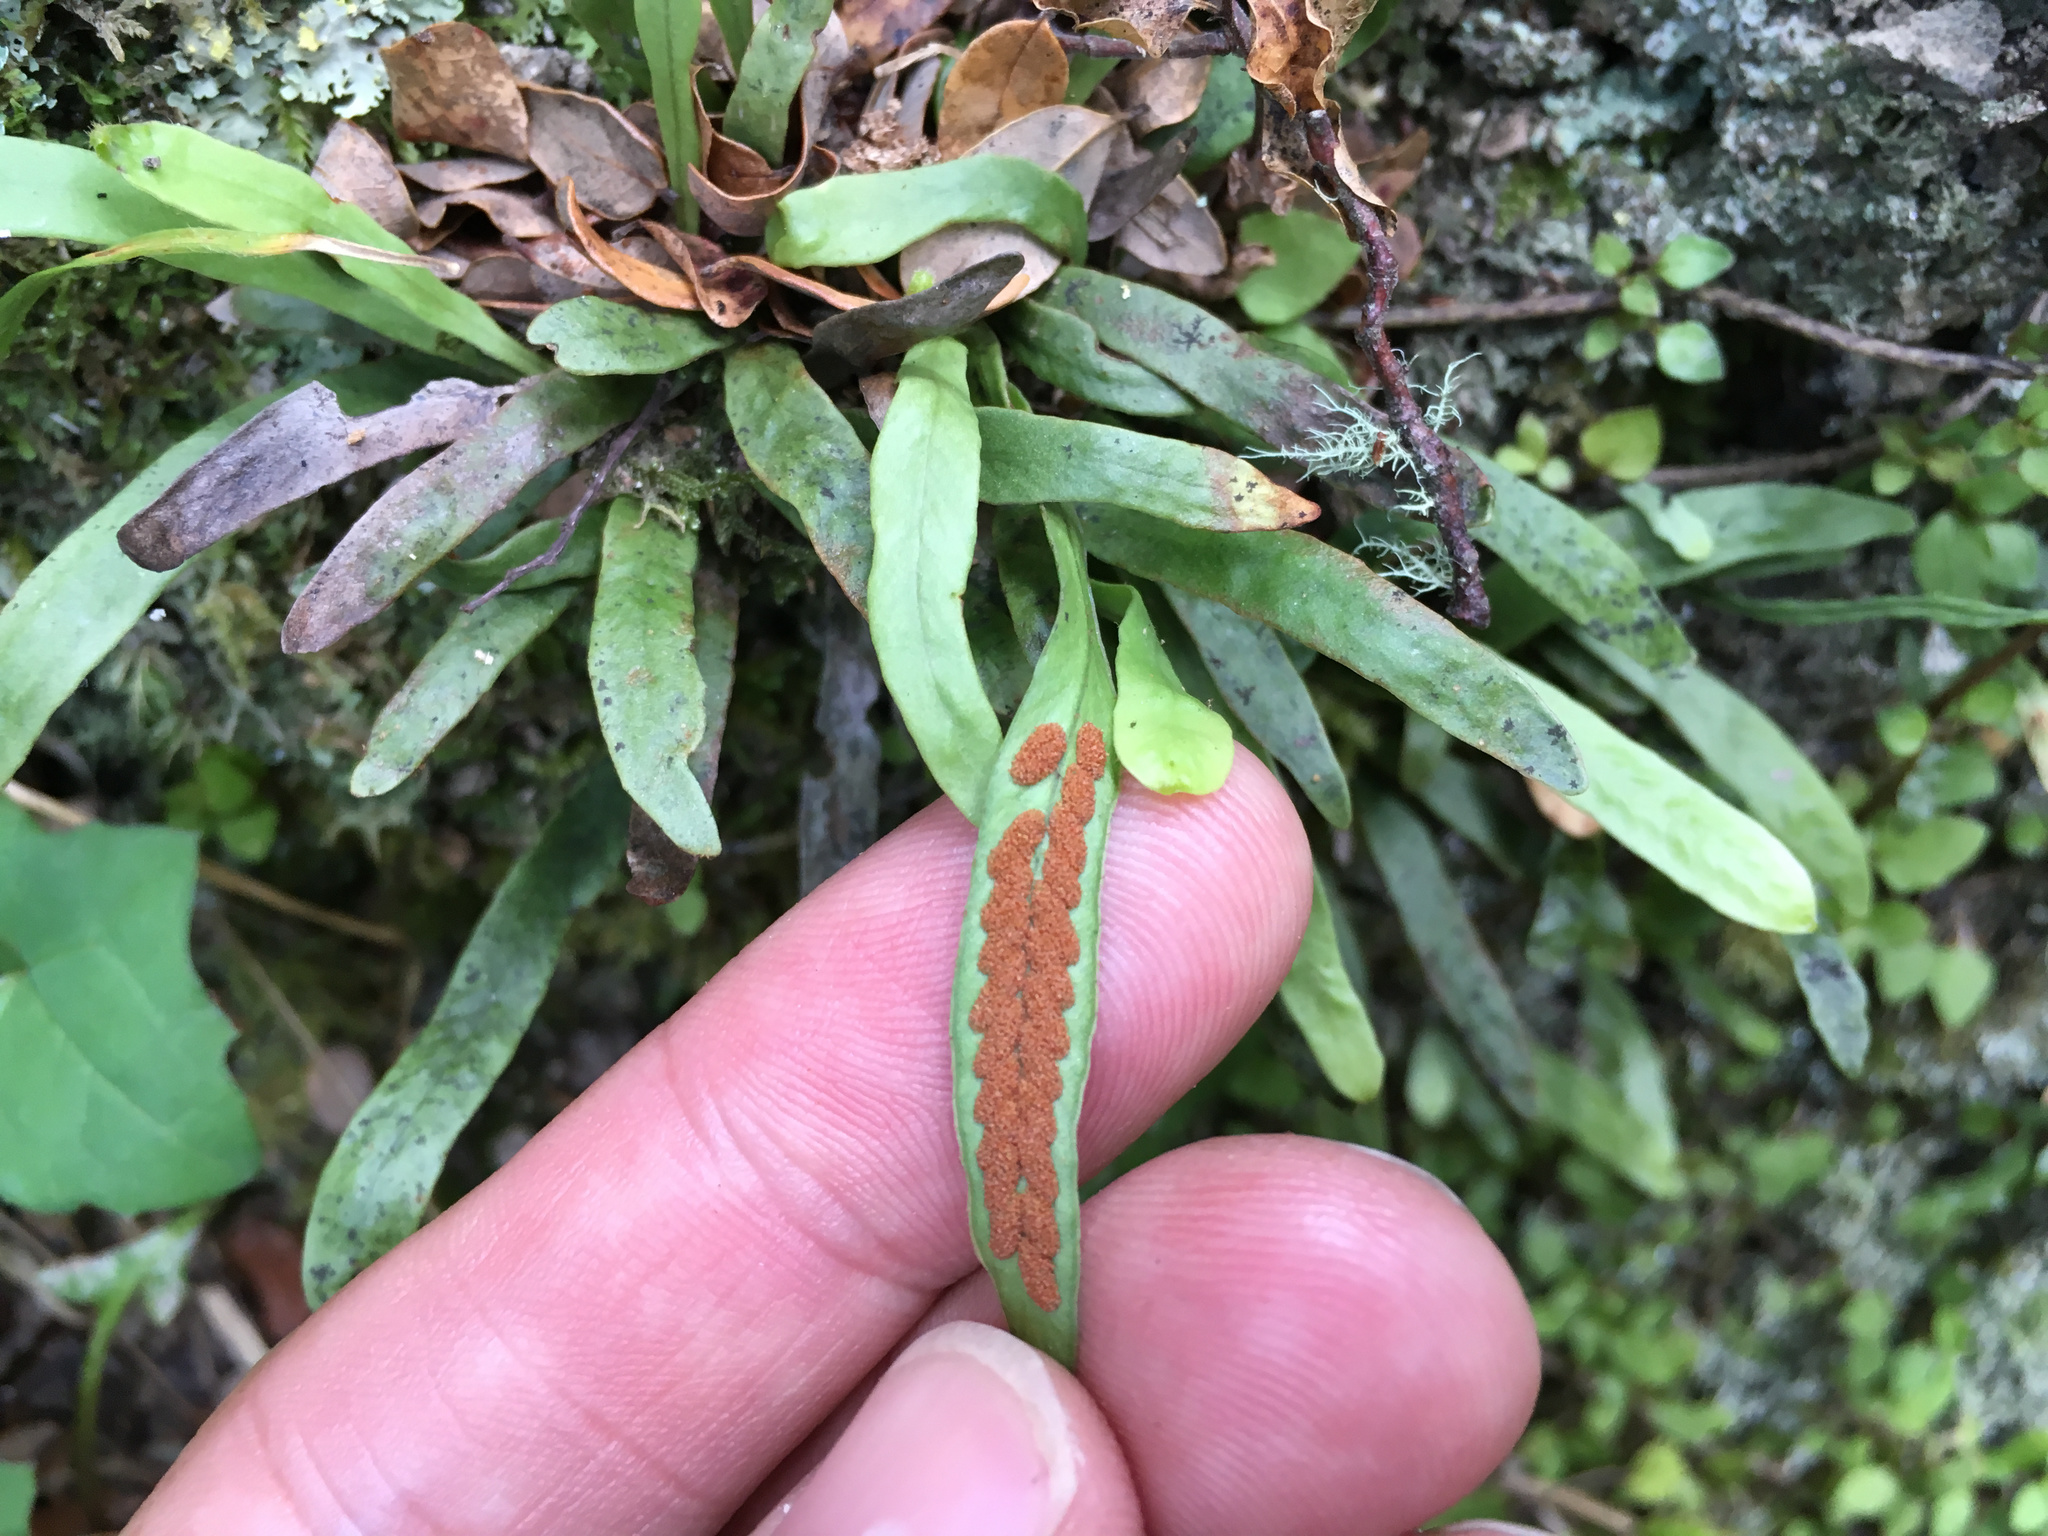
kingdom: Plantae
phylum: Tracheophyta
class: Polypodiopsida
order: Polypodiales
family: Polypodiaceae
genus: Notogrammitis
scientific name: Notogrammitis billardierei
